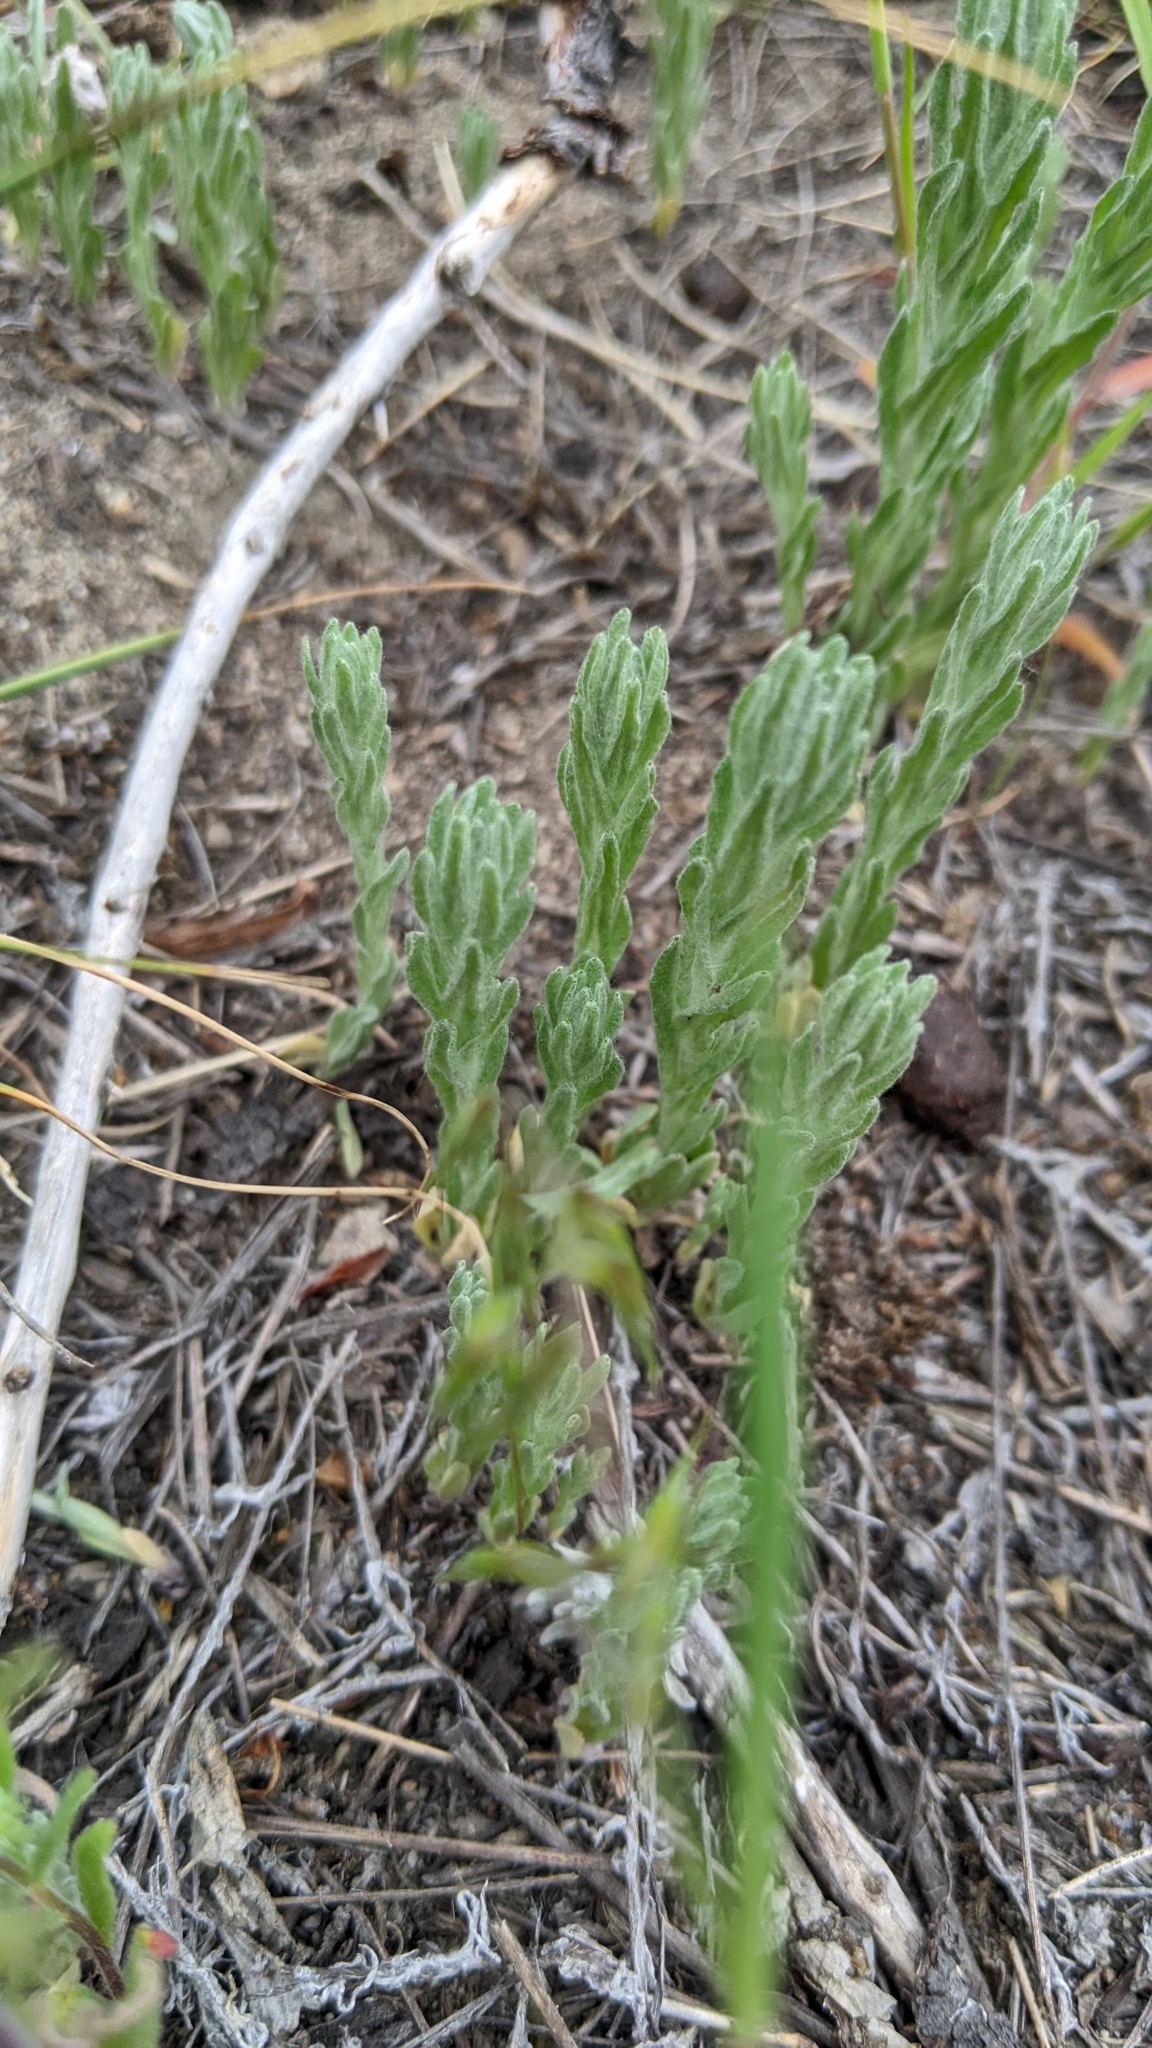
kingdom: Plantae
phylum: Tracheophyta
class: Magnoliopsida
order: Asterales
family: Asteraceae
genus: Filago
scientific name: Filago arvensis
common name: Field cudweed
